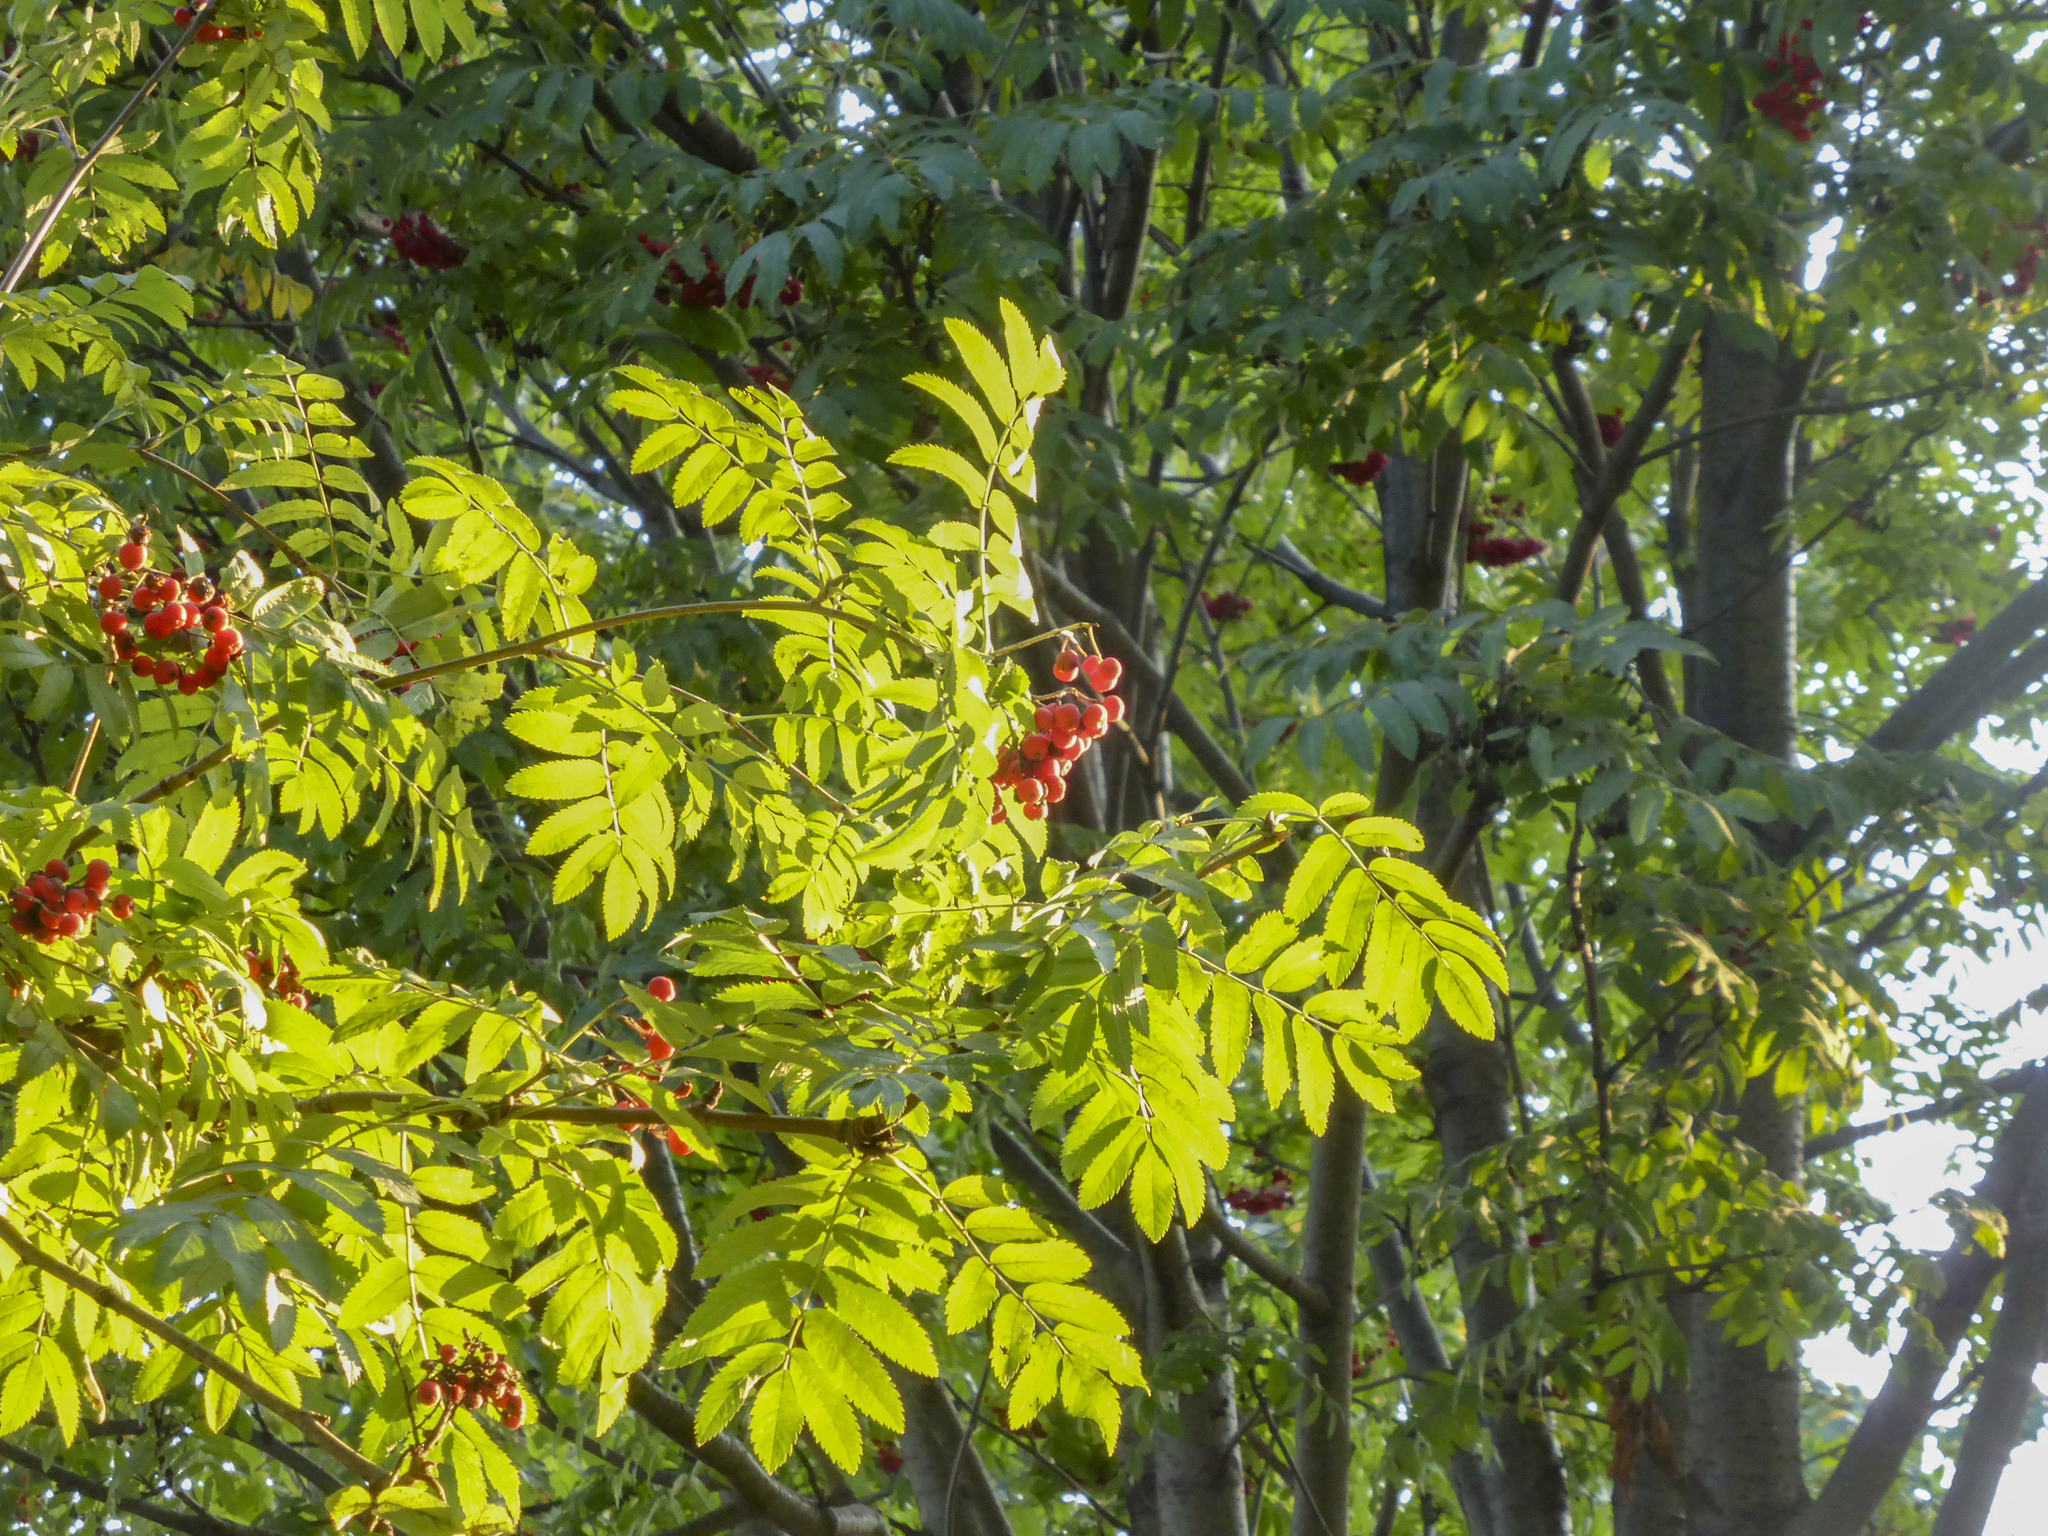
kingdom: Plantae
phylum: Tracheophyta
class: Magnoliopsida
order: Rosales
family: Rosaceae
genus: Sorbus
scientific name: Sorbus aucuparia
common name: Rowan
